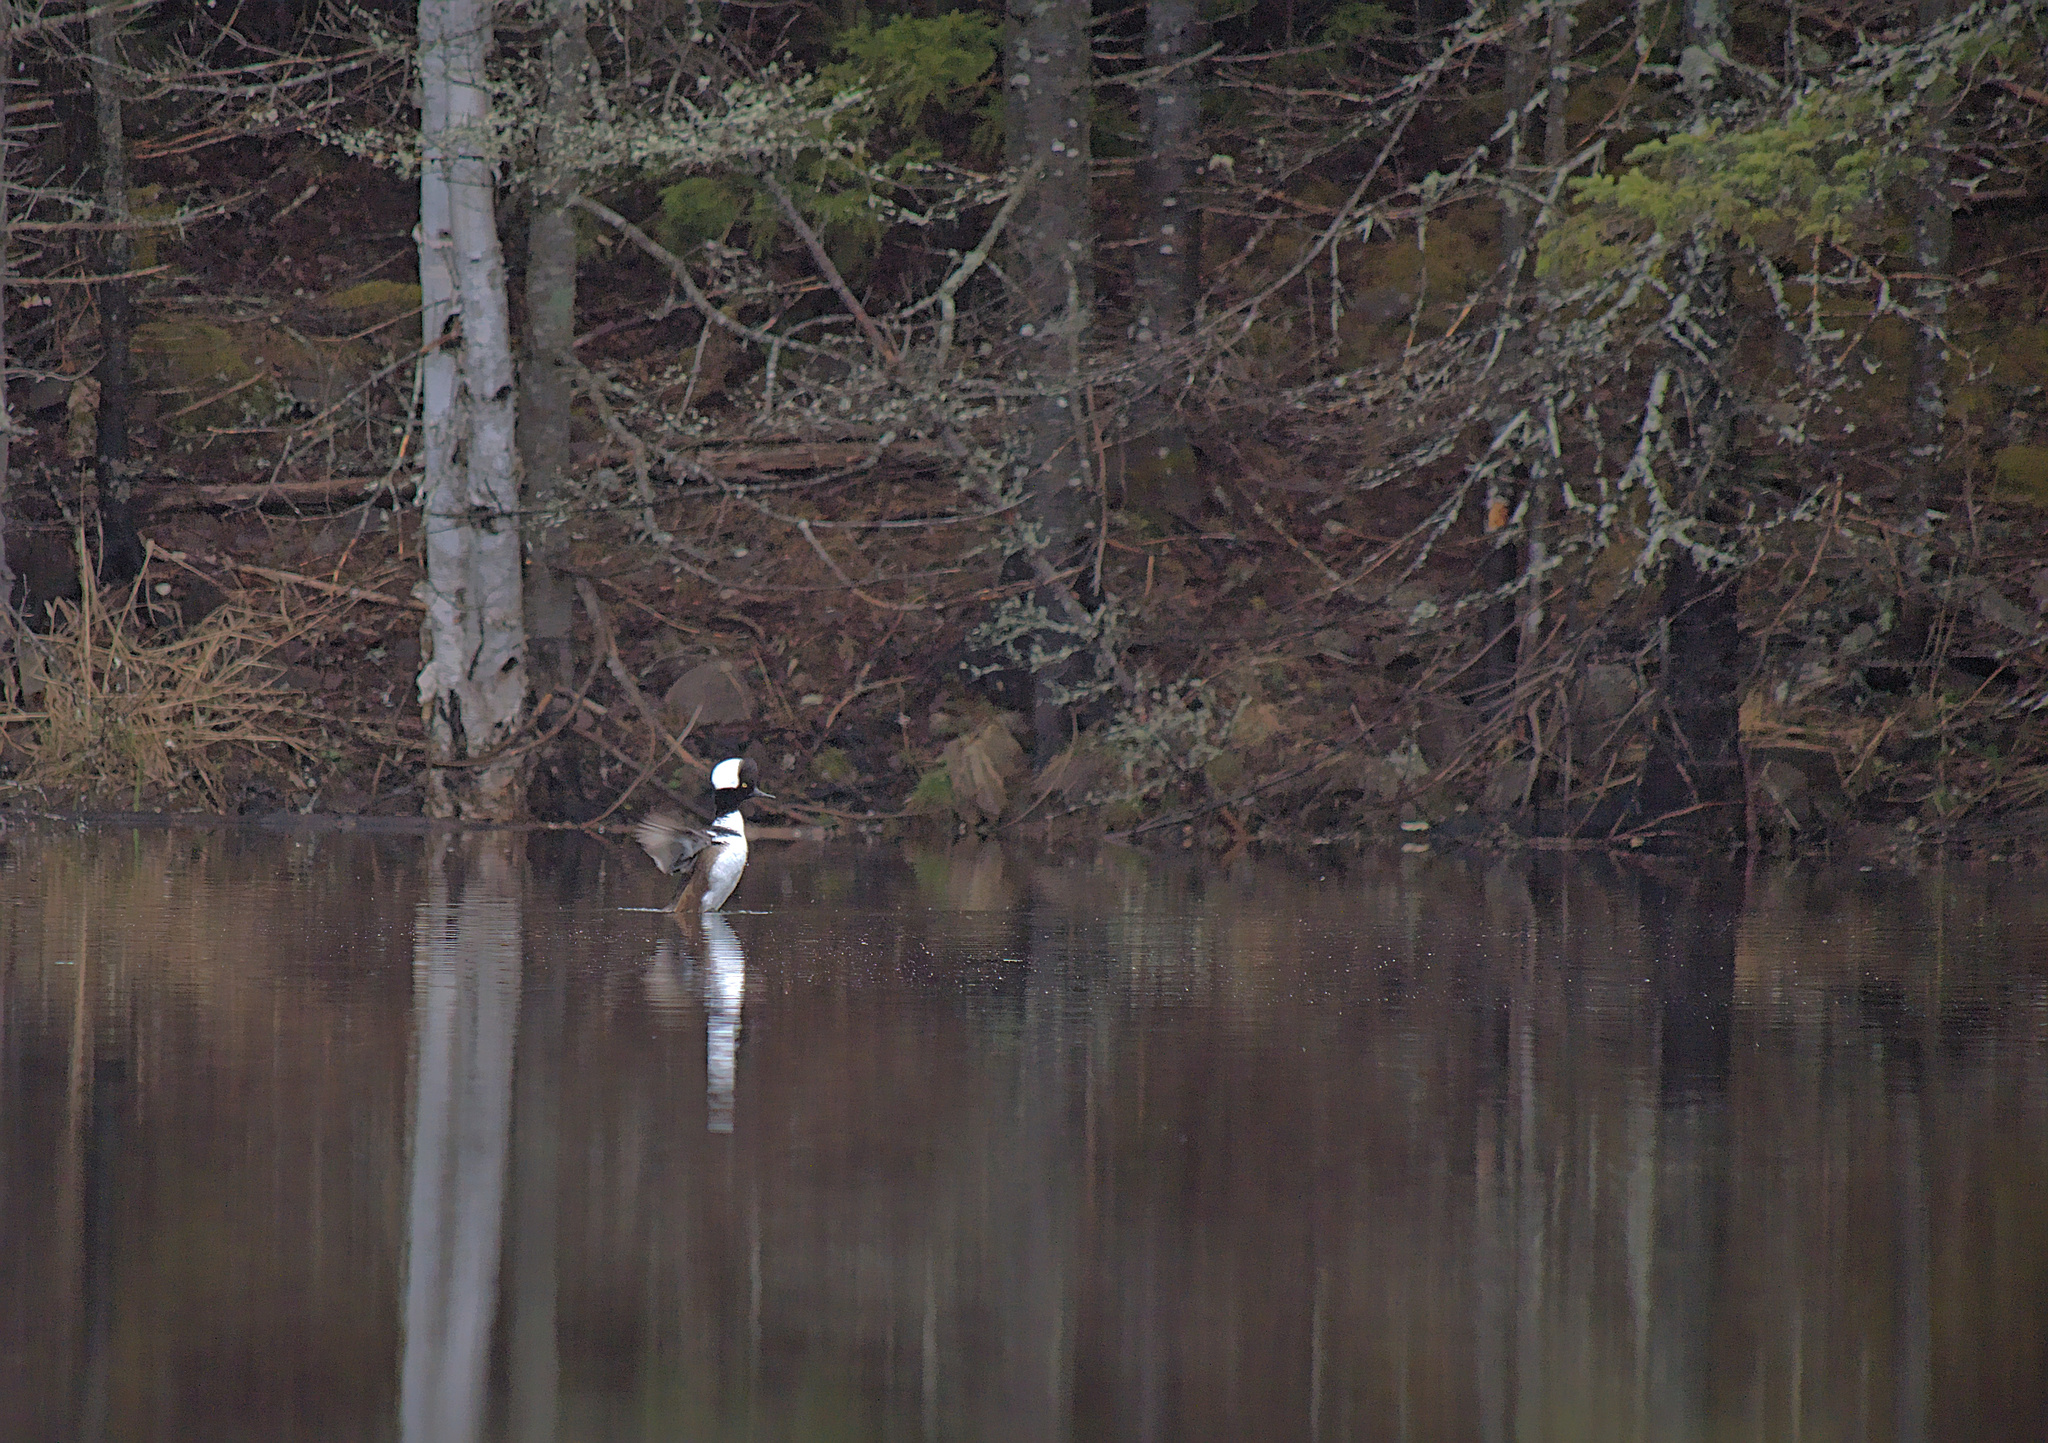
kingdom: Animalia
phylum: Chordata
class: Aves
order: Anseriformes
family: Anatidae
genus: Lophodytes
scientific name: Lophodytes cucullatus
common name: Hooded merganser
